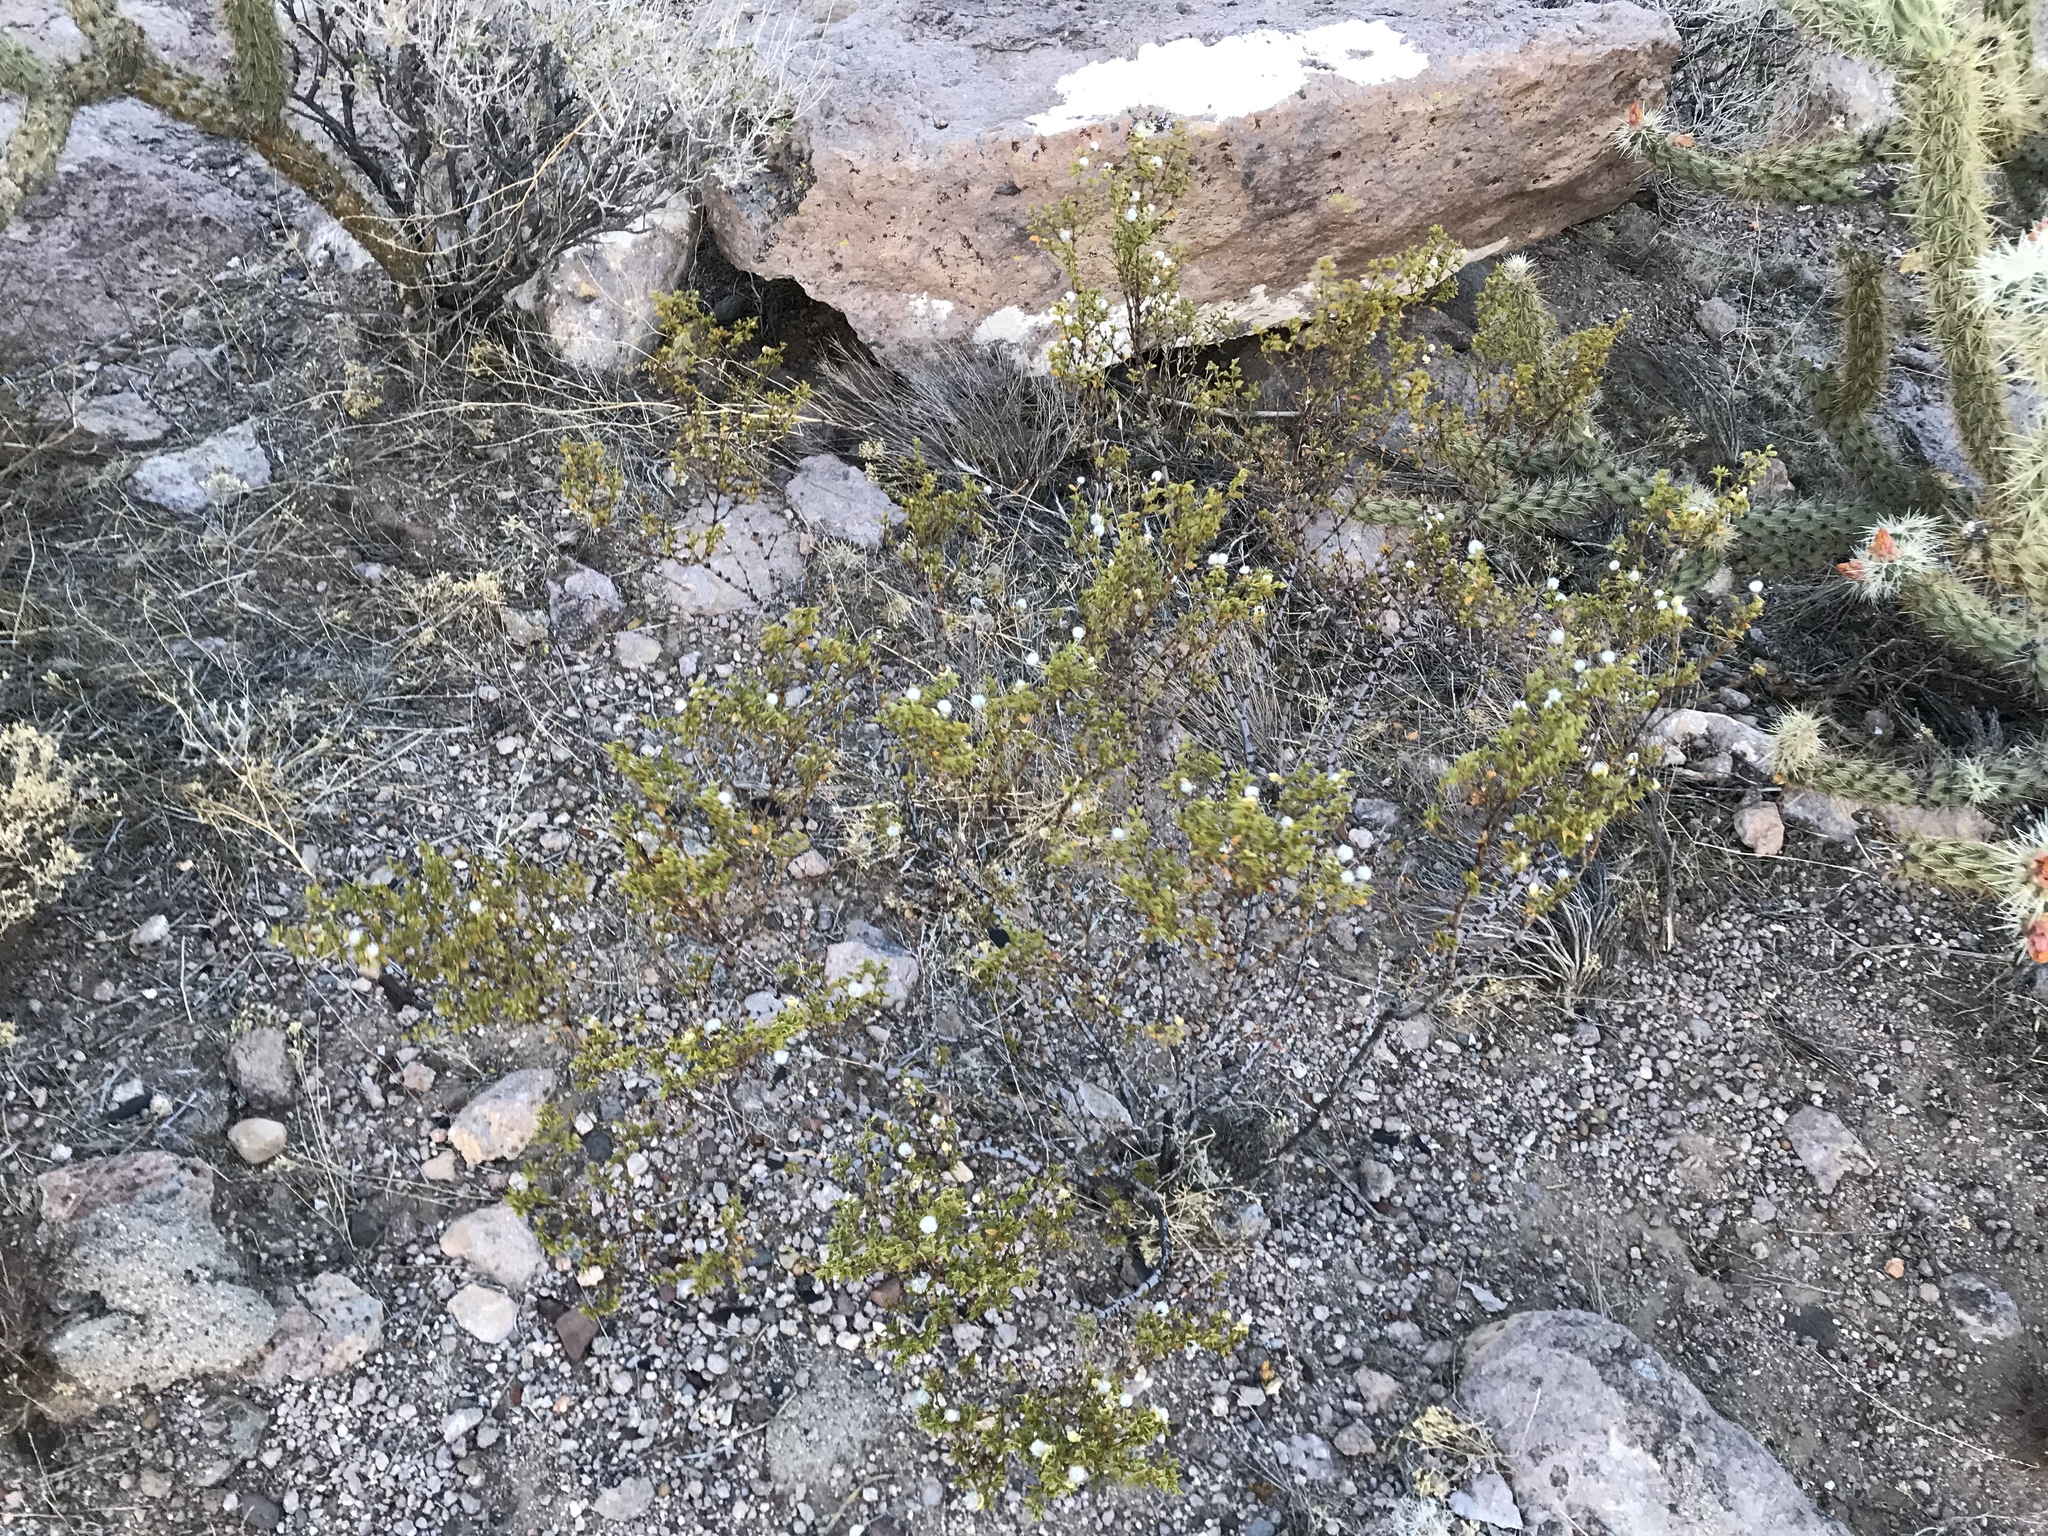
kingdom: Plantae
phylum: Tracheophyta
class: Magnoliopsida
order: Zygophyllales
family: Zygophyllaceae
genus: Larrea
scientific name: Larrea tridentata
